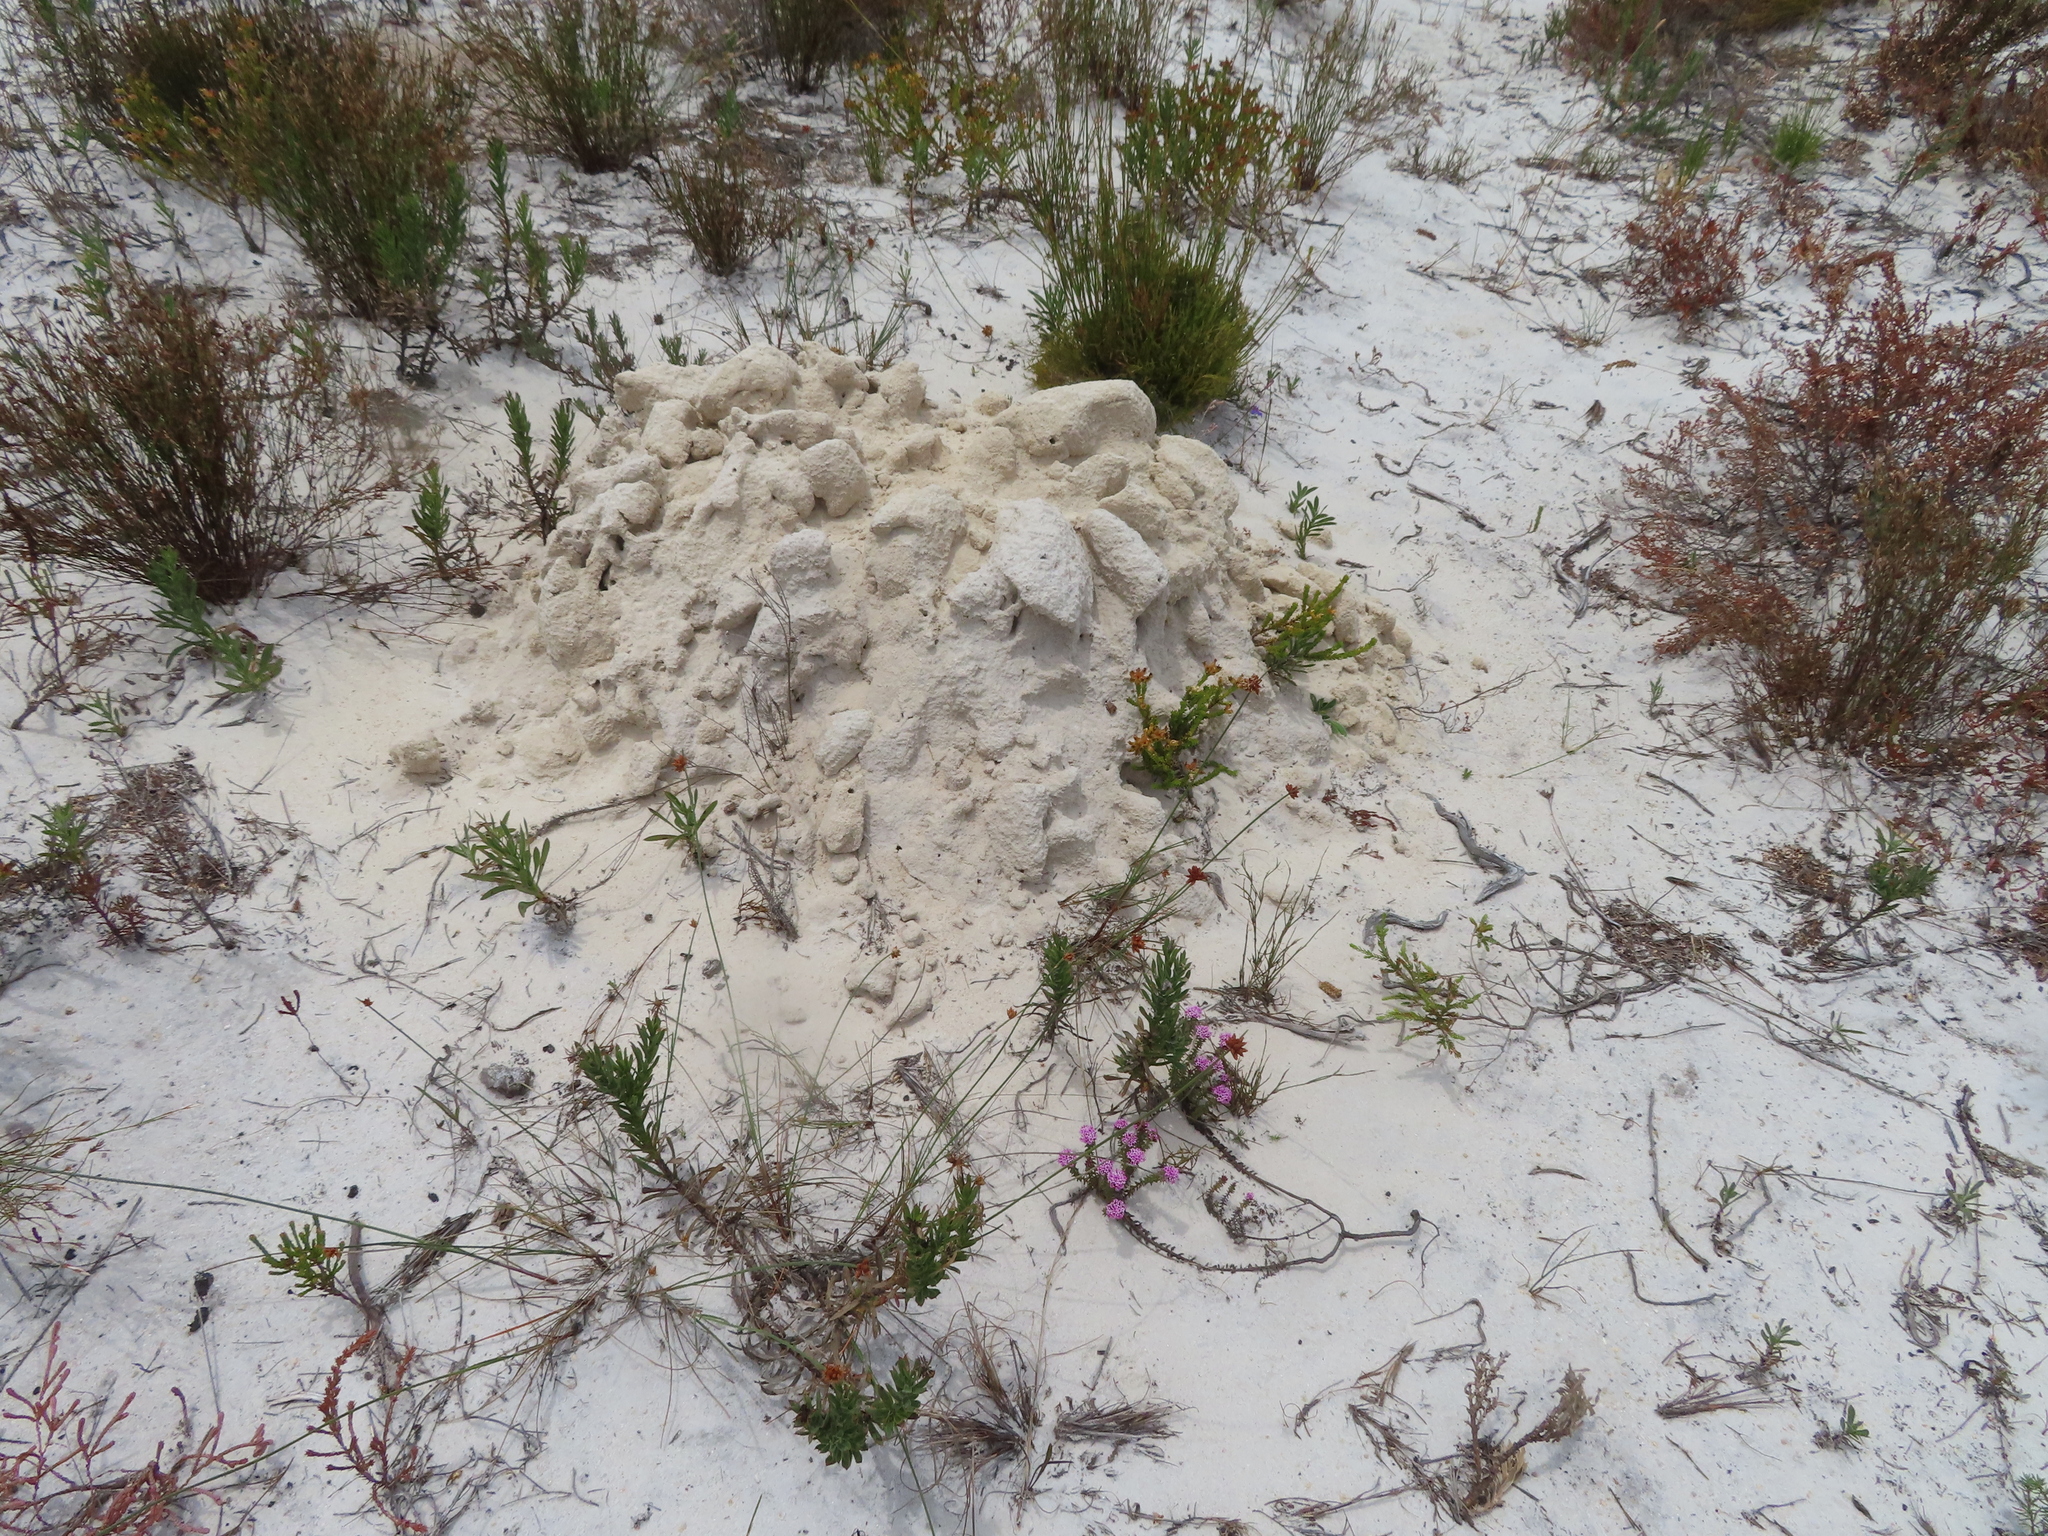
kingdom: Animalia
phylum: Chordata
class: Mammalia
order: Rodentia
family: Bathyergidae
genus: Bathyergus
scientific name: Bathyergus suillus
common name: Cape dune mole rat
